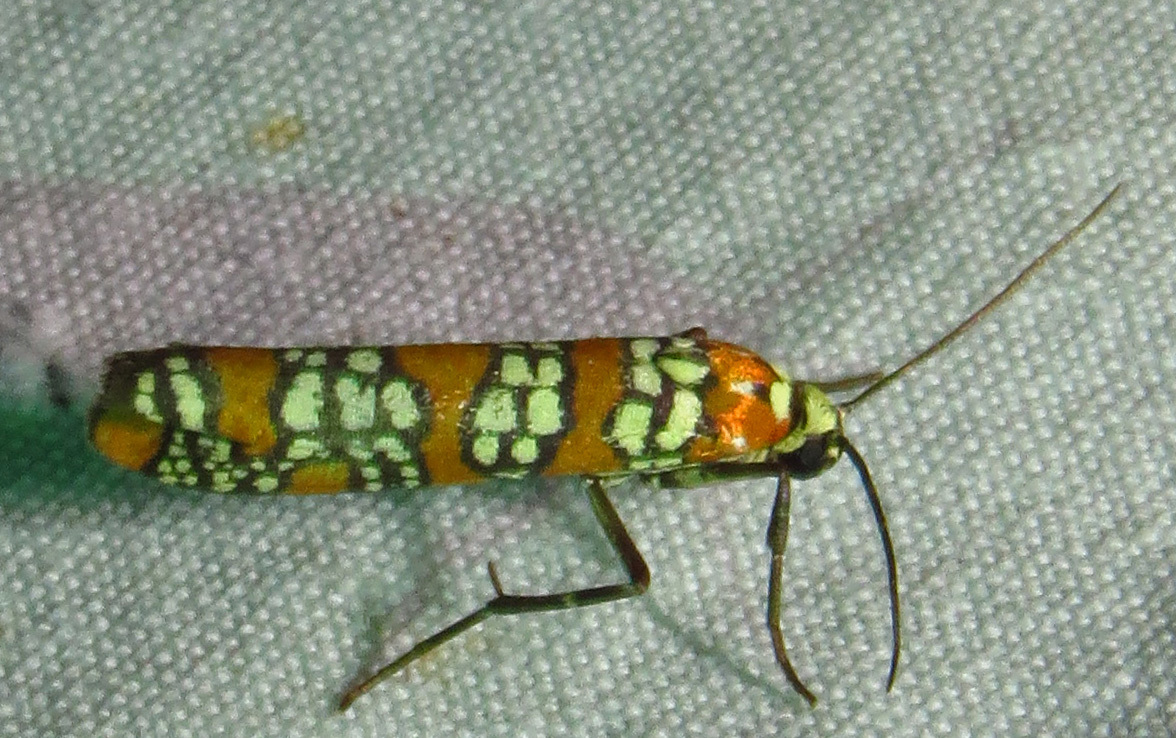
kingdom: Animalia
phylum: Arthropoda
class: Insecta
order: Lepidoptera
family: Attevidae
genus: Atteva
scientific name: Atteva punctella
